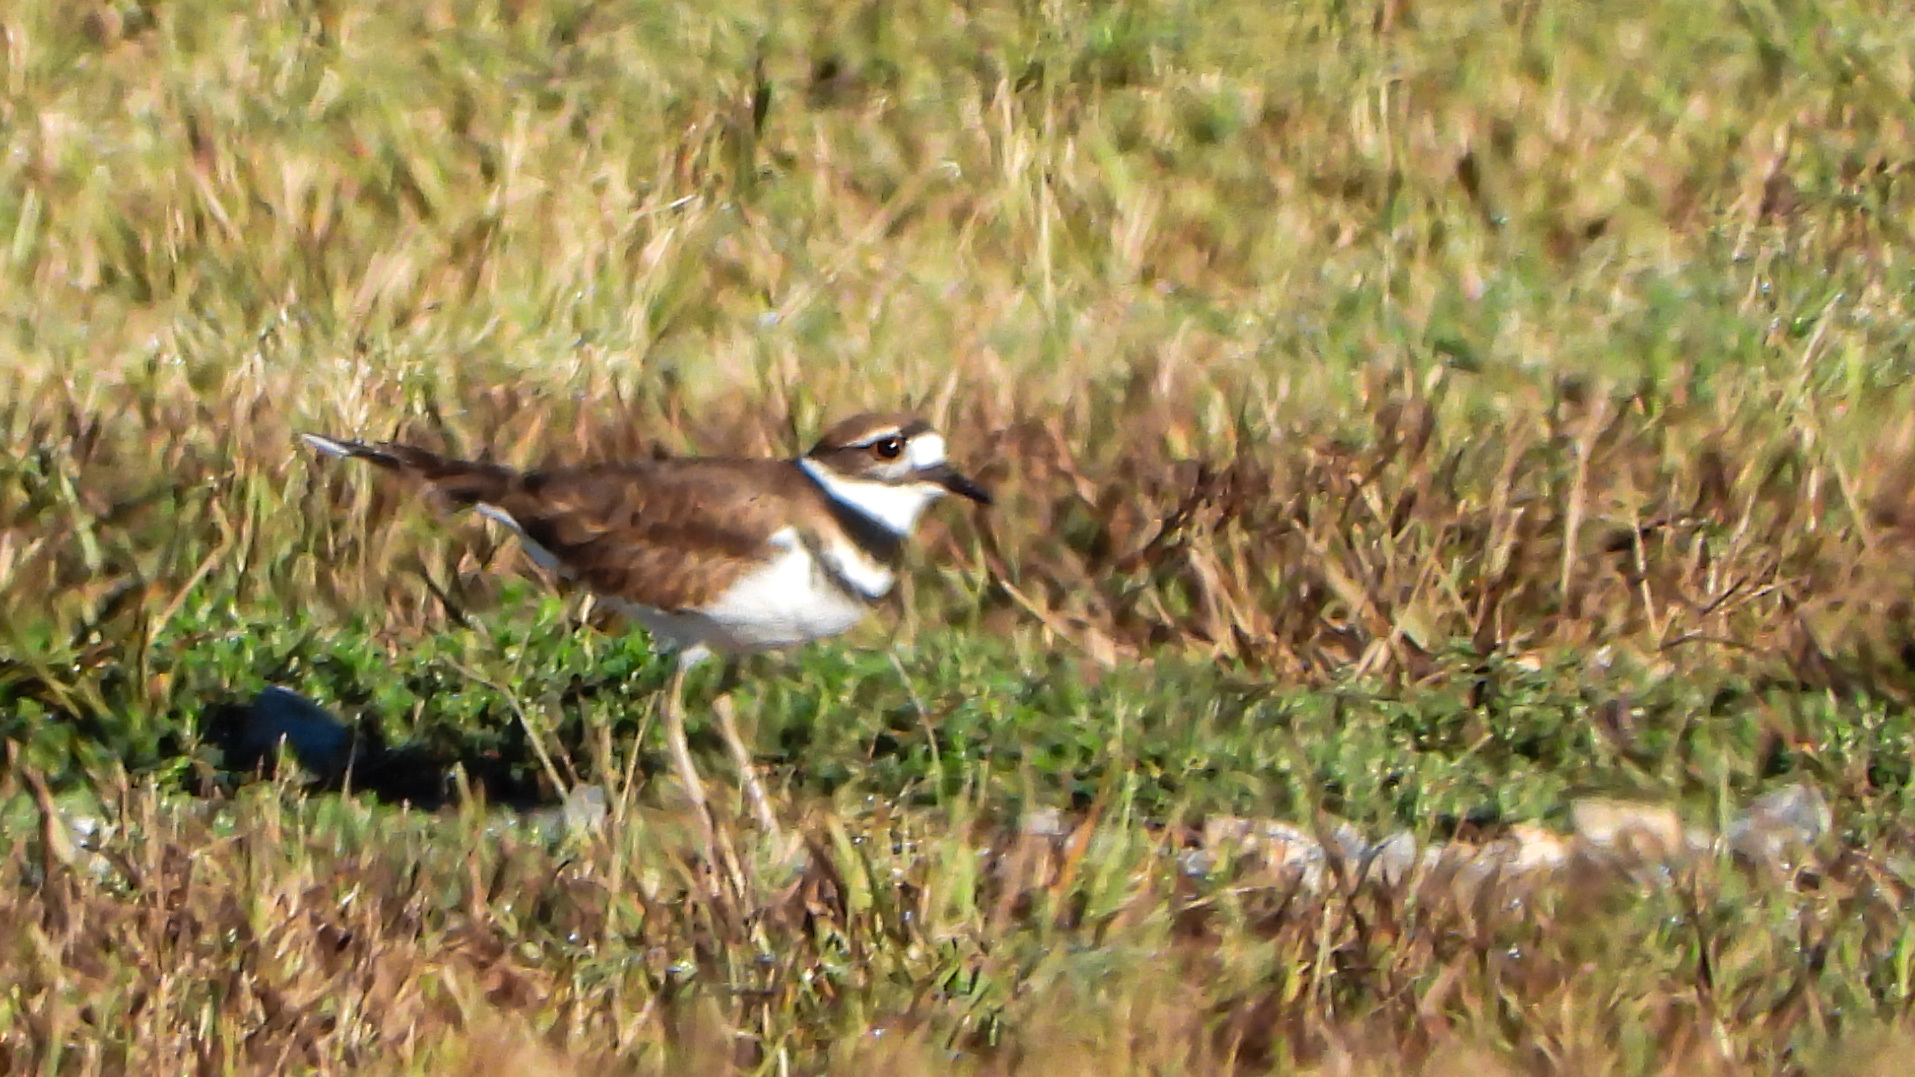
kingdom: Animalia
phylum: Chordata
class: Aves
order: Charadriiformes
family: Charadriidae
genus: Charadrius
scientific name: Charadrius vociferus
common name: Killdeer
